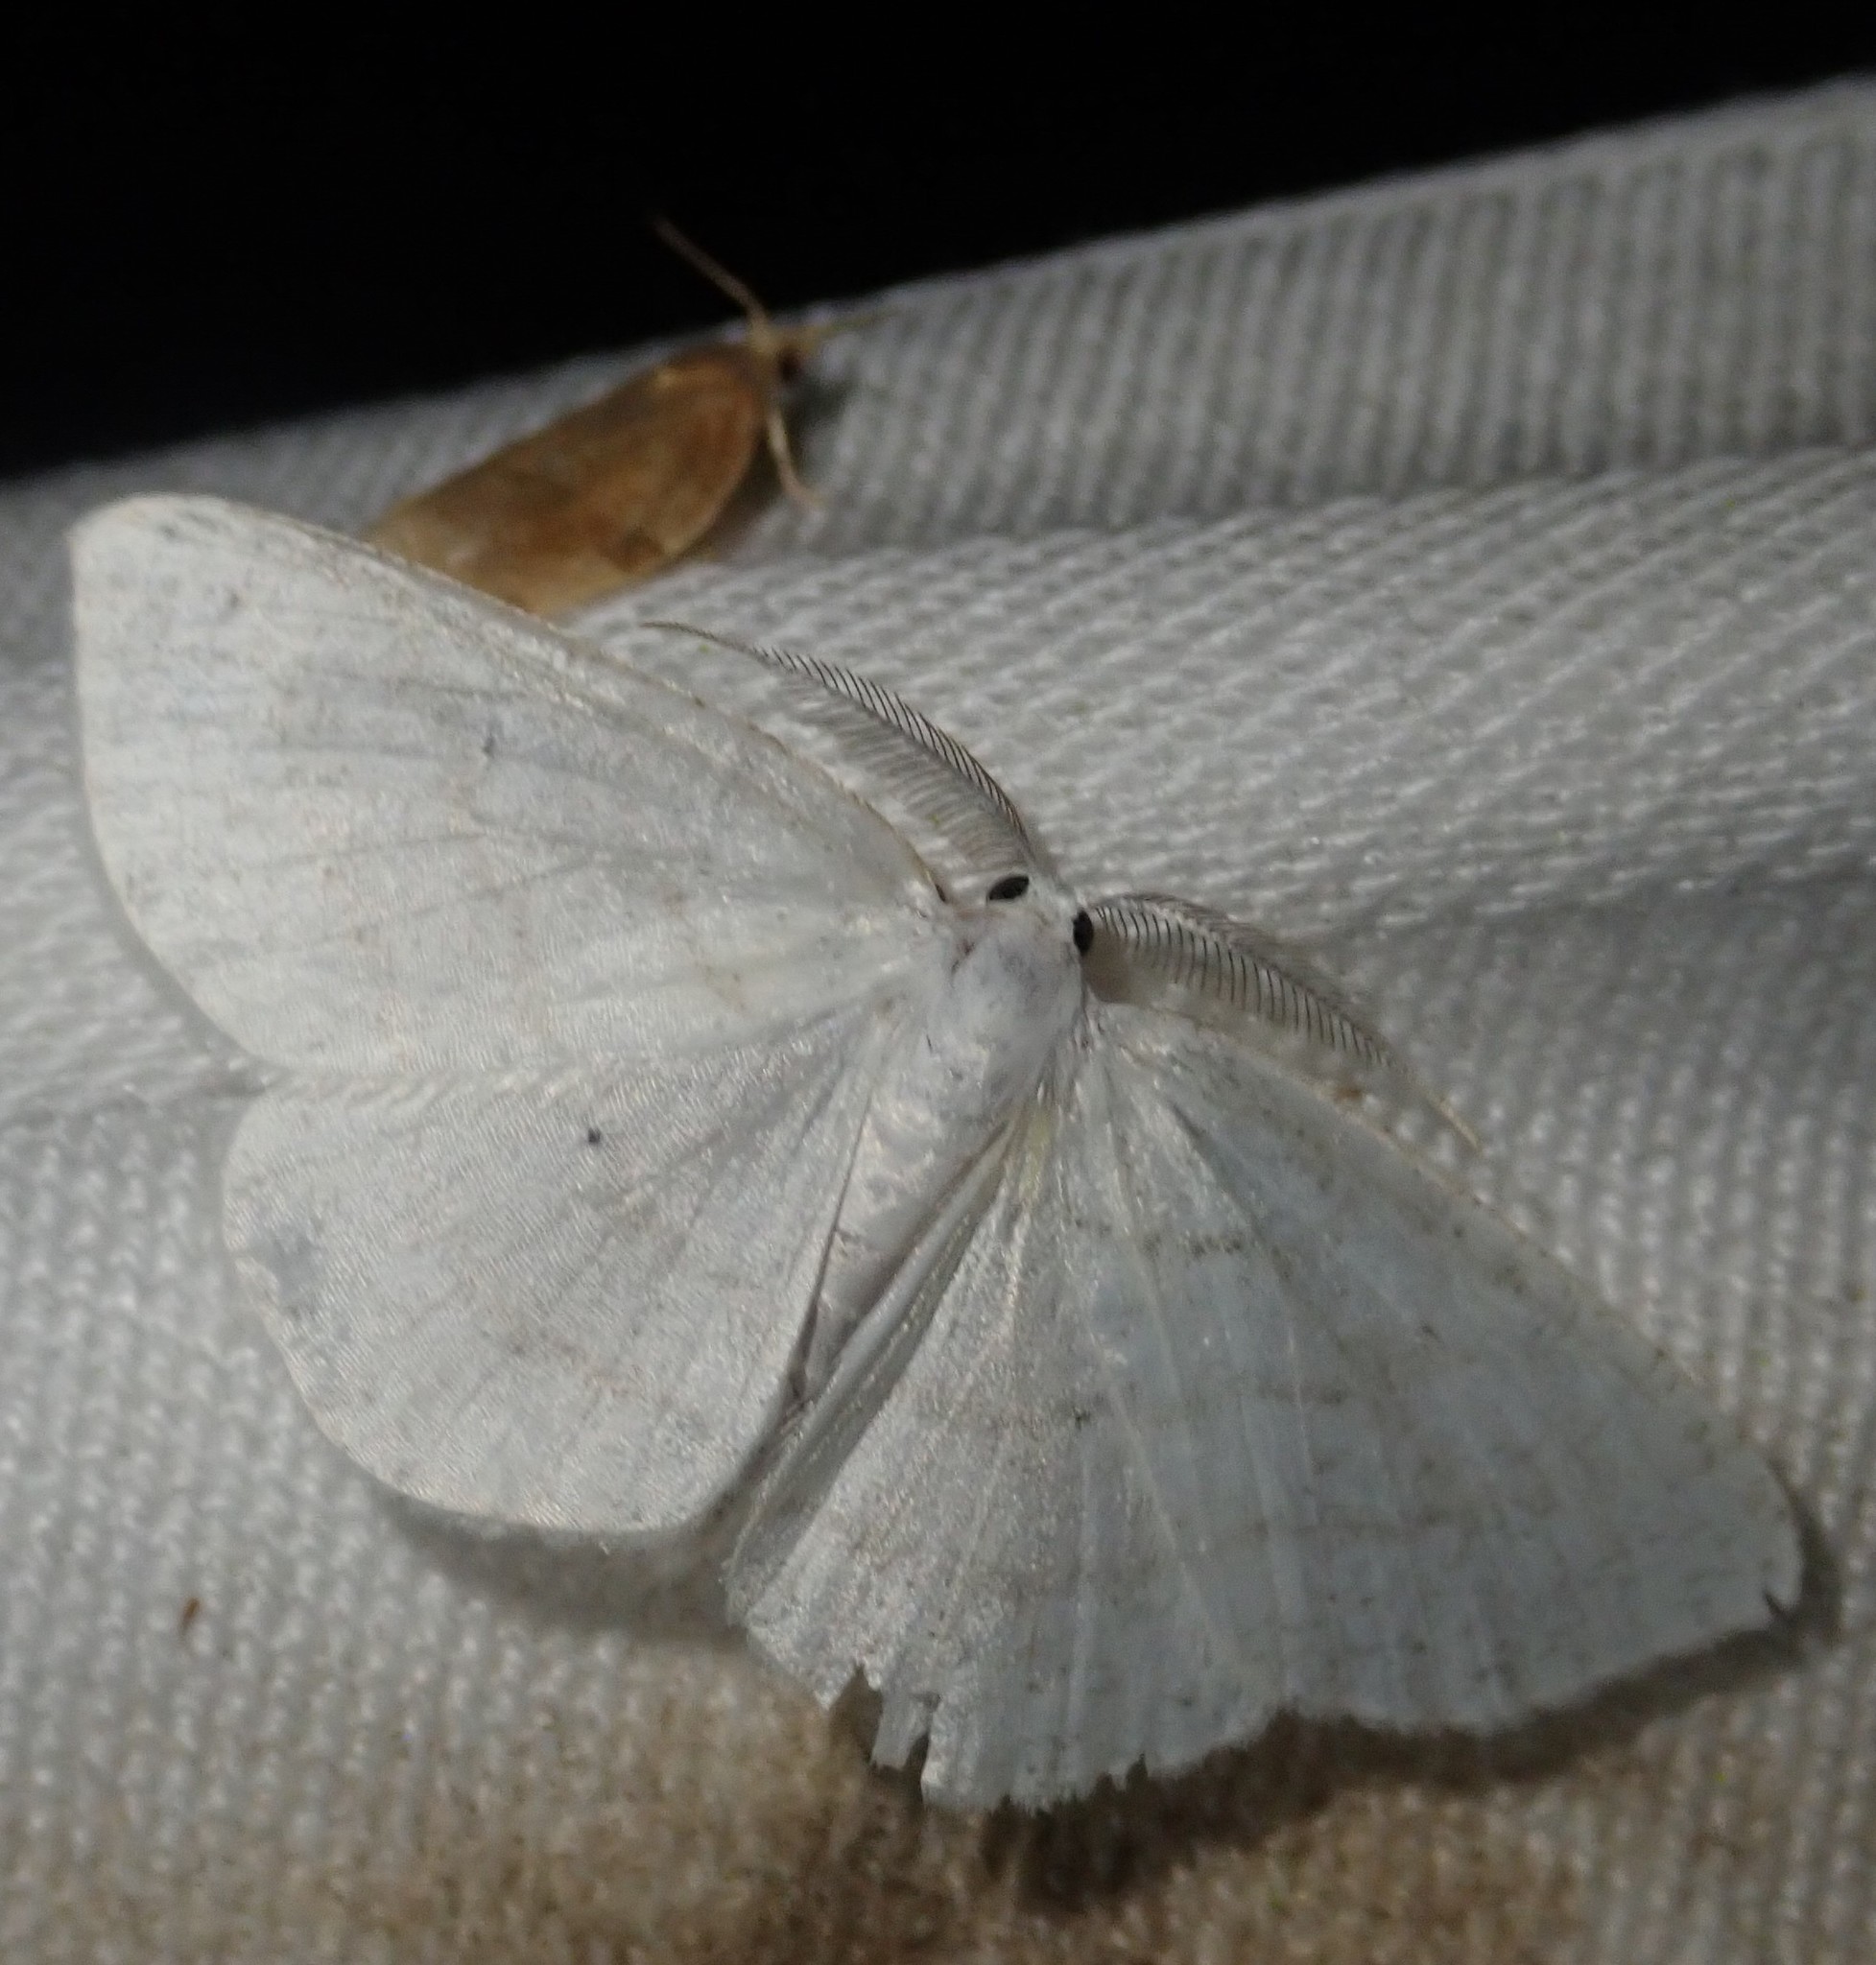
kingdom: Animalia
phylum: Arthropoda
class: Insecta
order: Lepidoptera
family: Geometridae
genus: Cabera
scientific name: Cabera pusaria
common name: Common white wave
